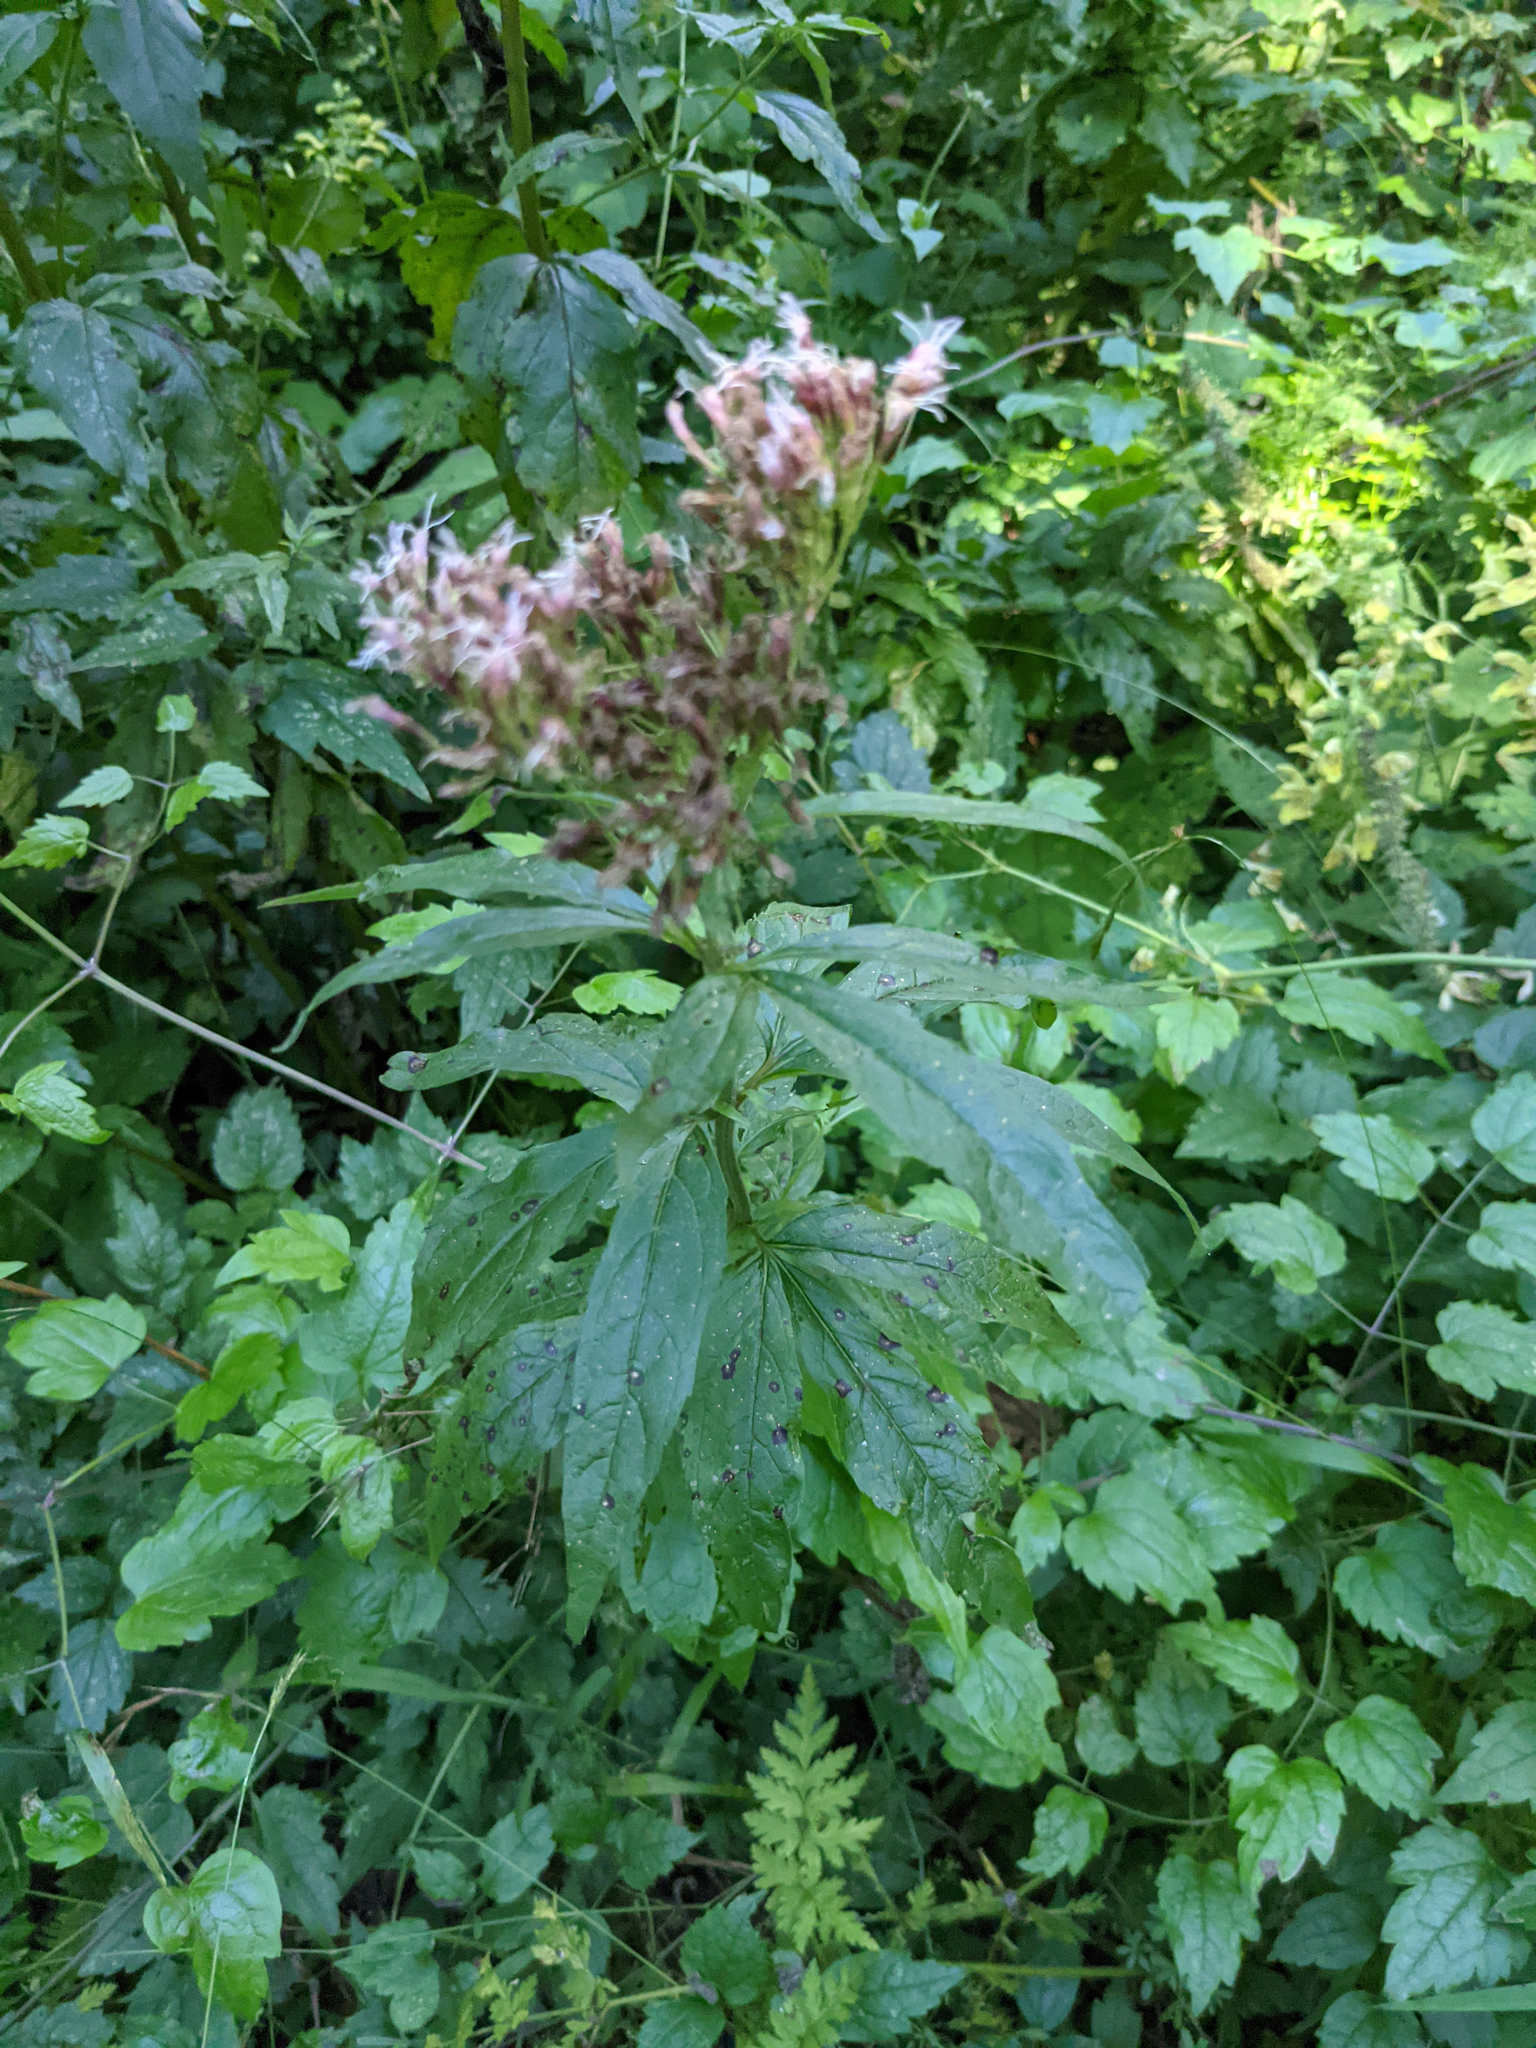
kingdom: Plantae
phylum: Tracheophyta
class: Magnoliopsida
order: Asterales
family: Asteraceae
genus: Eupatorium
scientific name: Eupatorium cannabinum
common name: Hemp-agrimony
